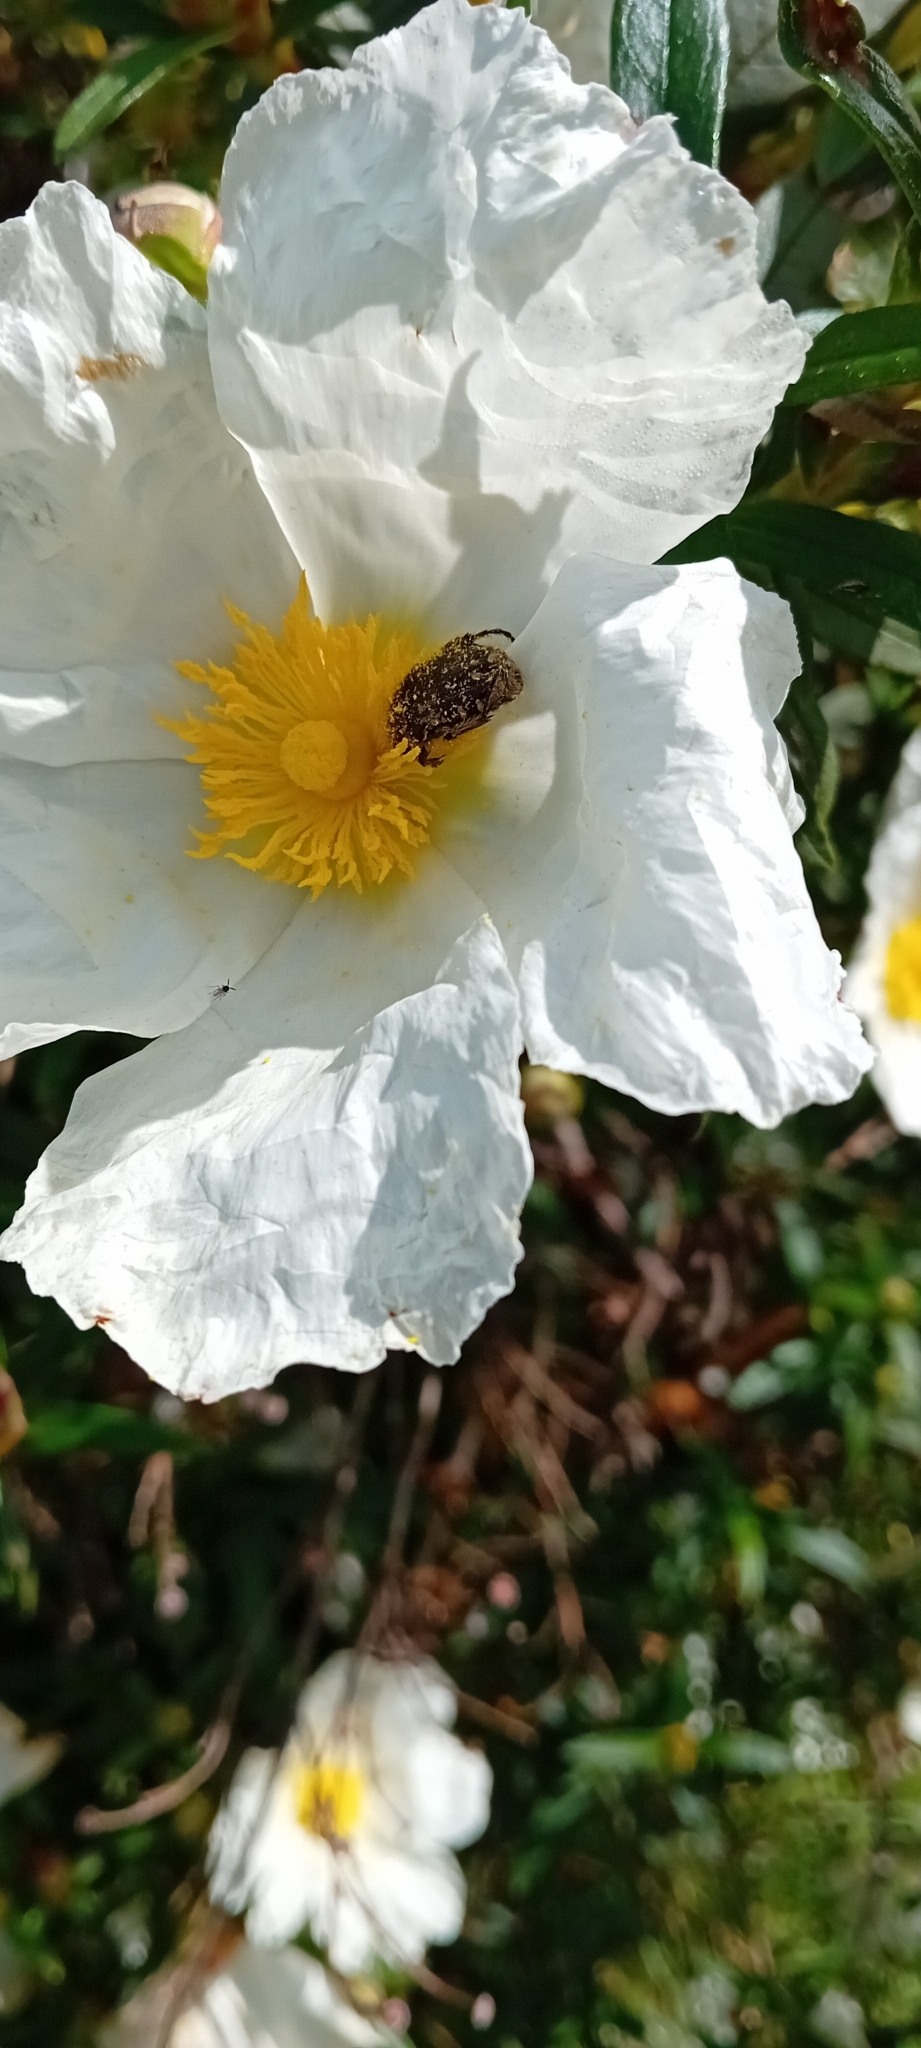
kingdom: Plantae
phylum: Tracheophyta
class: Magnoliopsida
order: Malvales
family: Cistaceae
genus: Cistus
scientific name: Cistus ladanifer
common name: Common gum cistus
